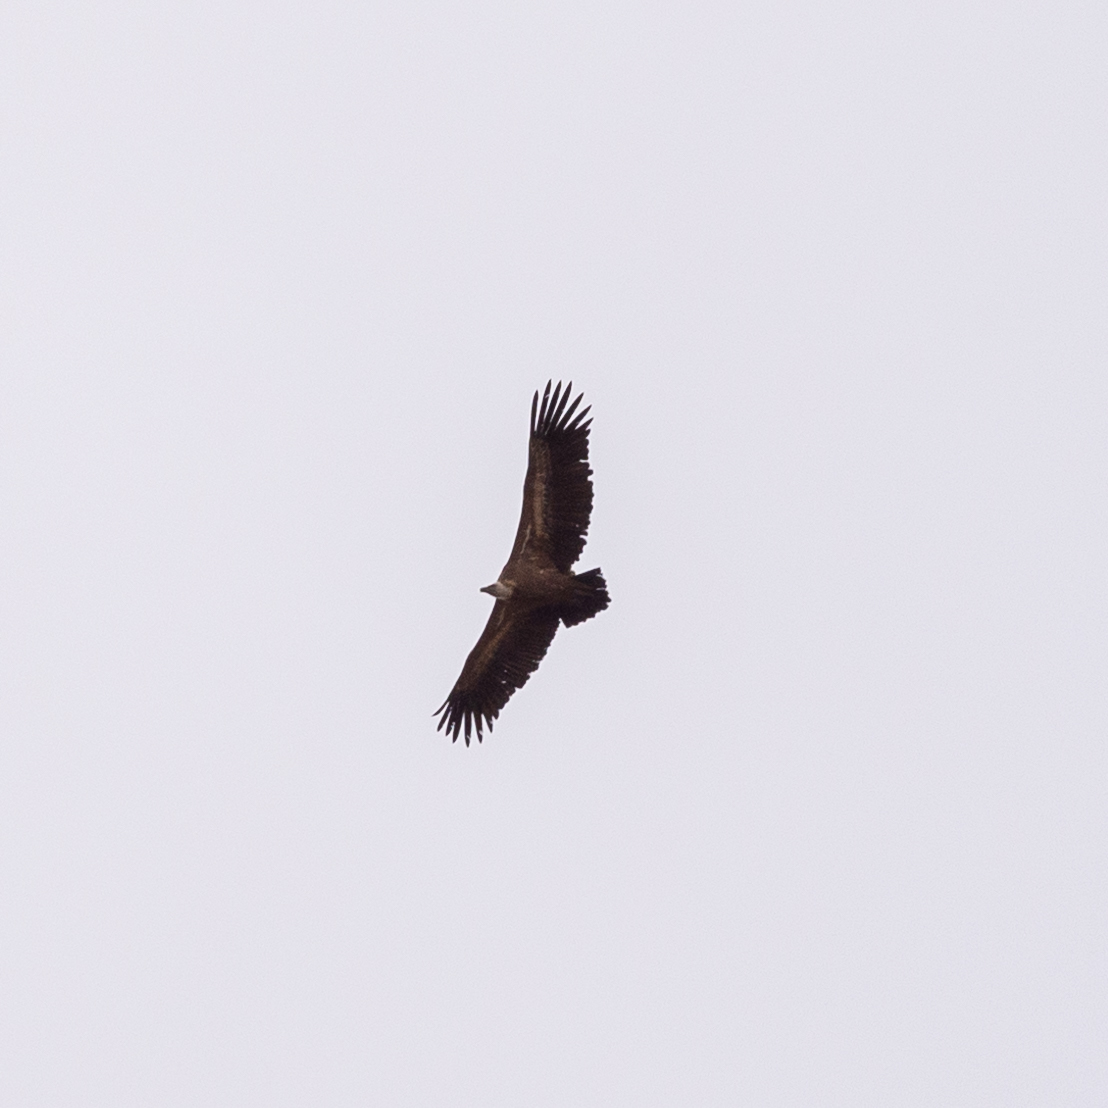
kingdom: Animalia
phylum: Chordata
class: Aves
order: Accipitriformes
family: Accipitridae
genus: Gyps
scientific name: Gyps fulvus
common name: Griffon vulture
